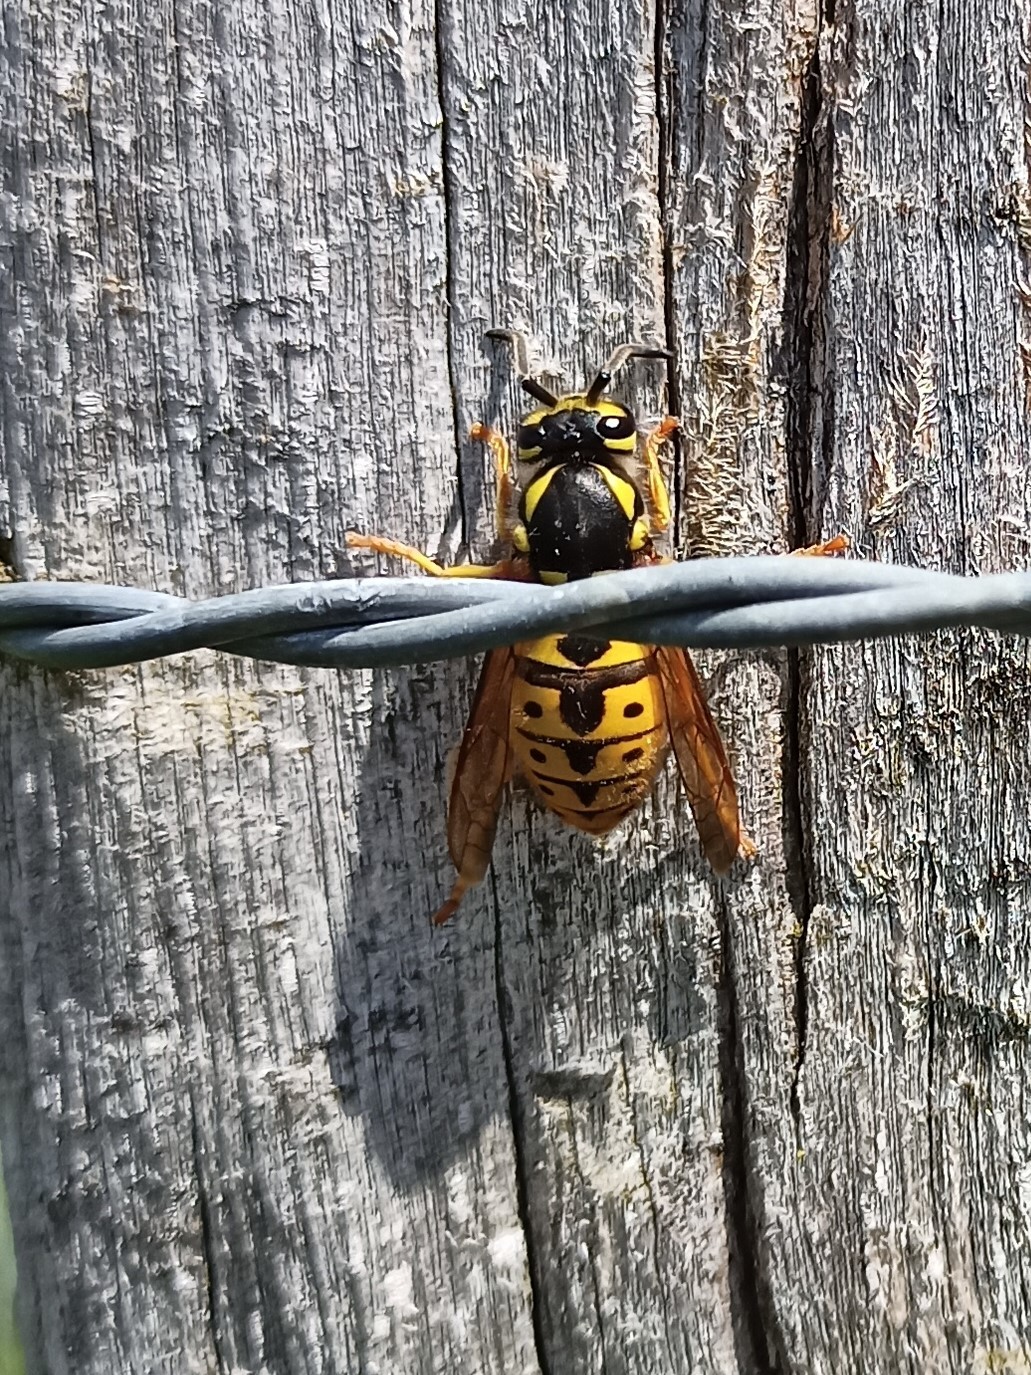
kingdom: Animalia
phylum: Arthropoda
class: Insecta
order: Hymenoptera
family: Vespidae
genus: Vespula
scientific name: Vespula germanica
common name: German wasp
